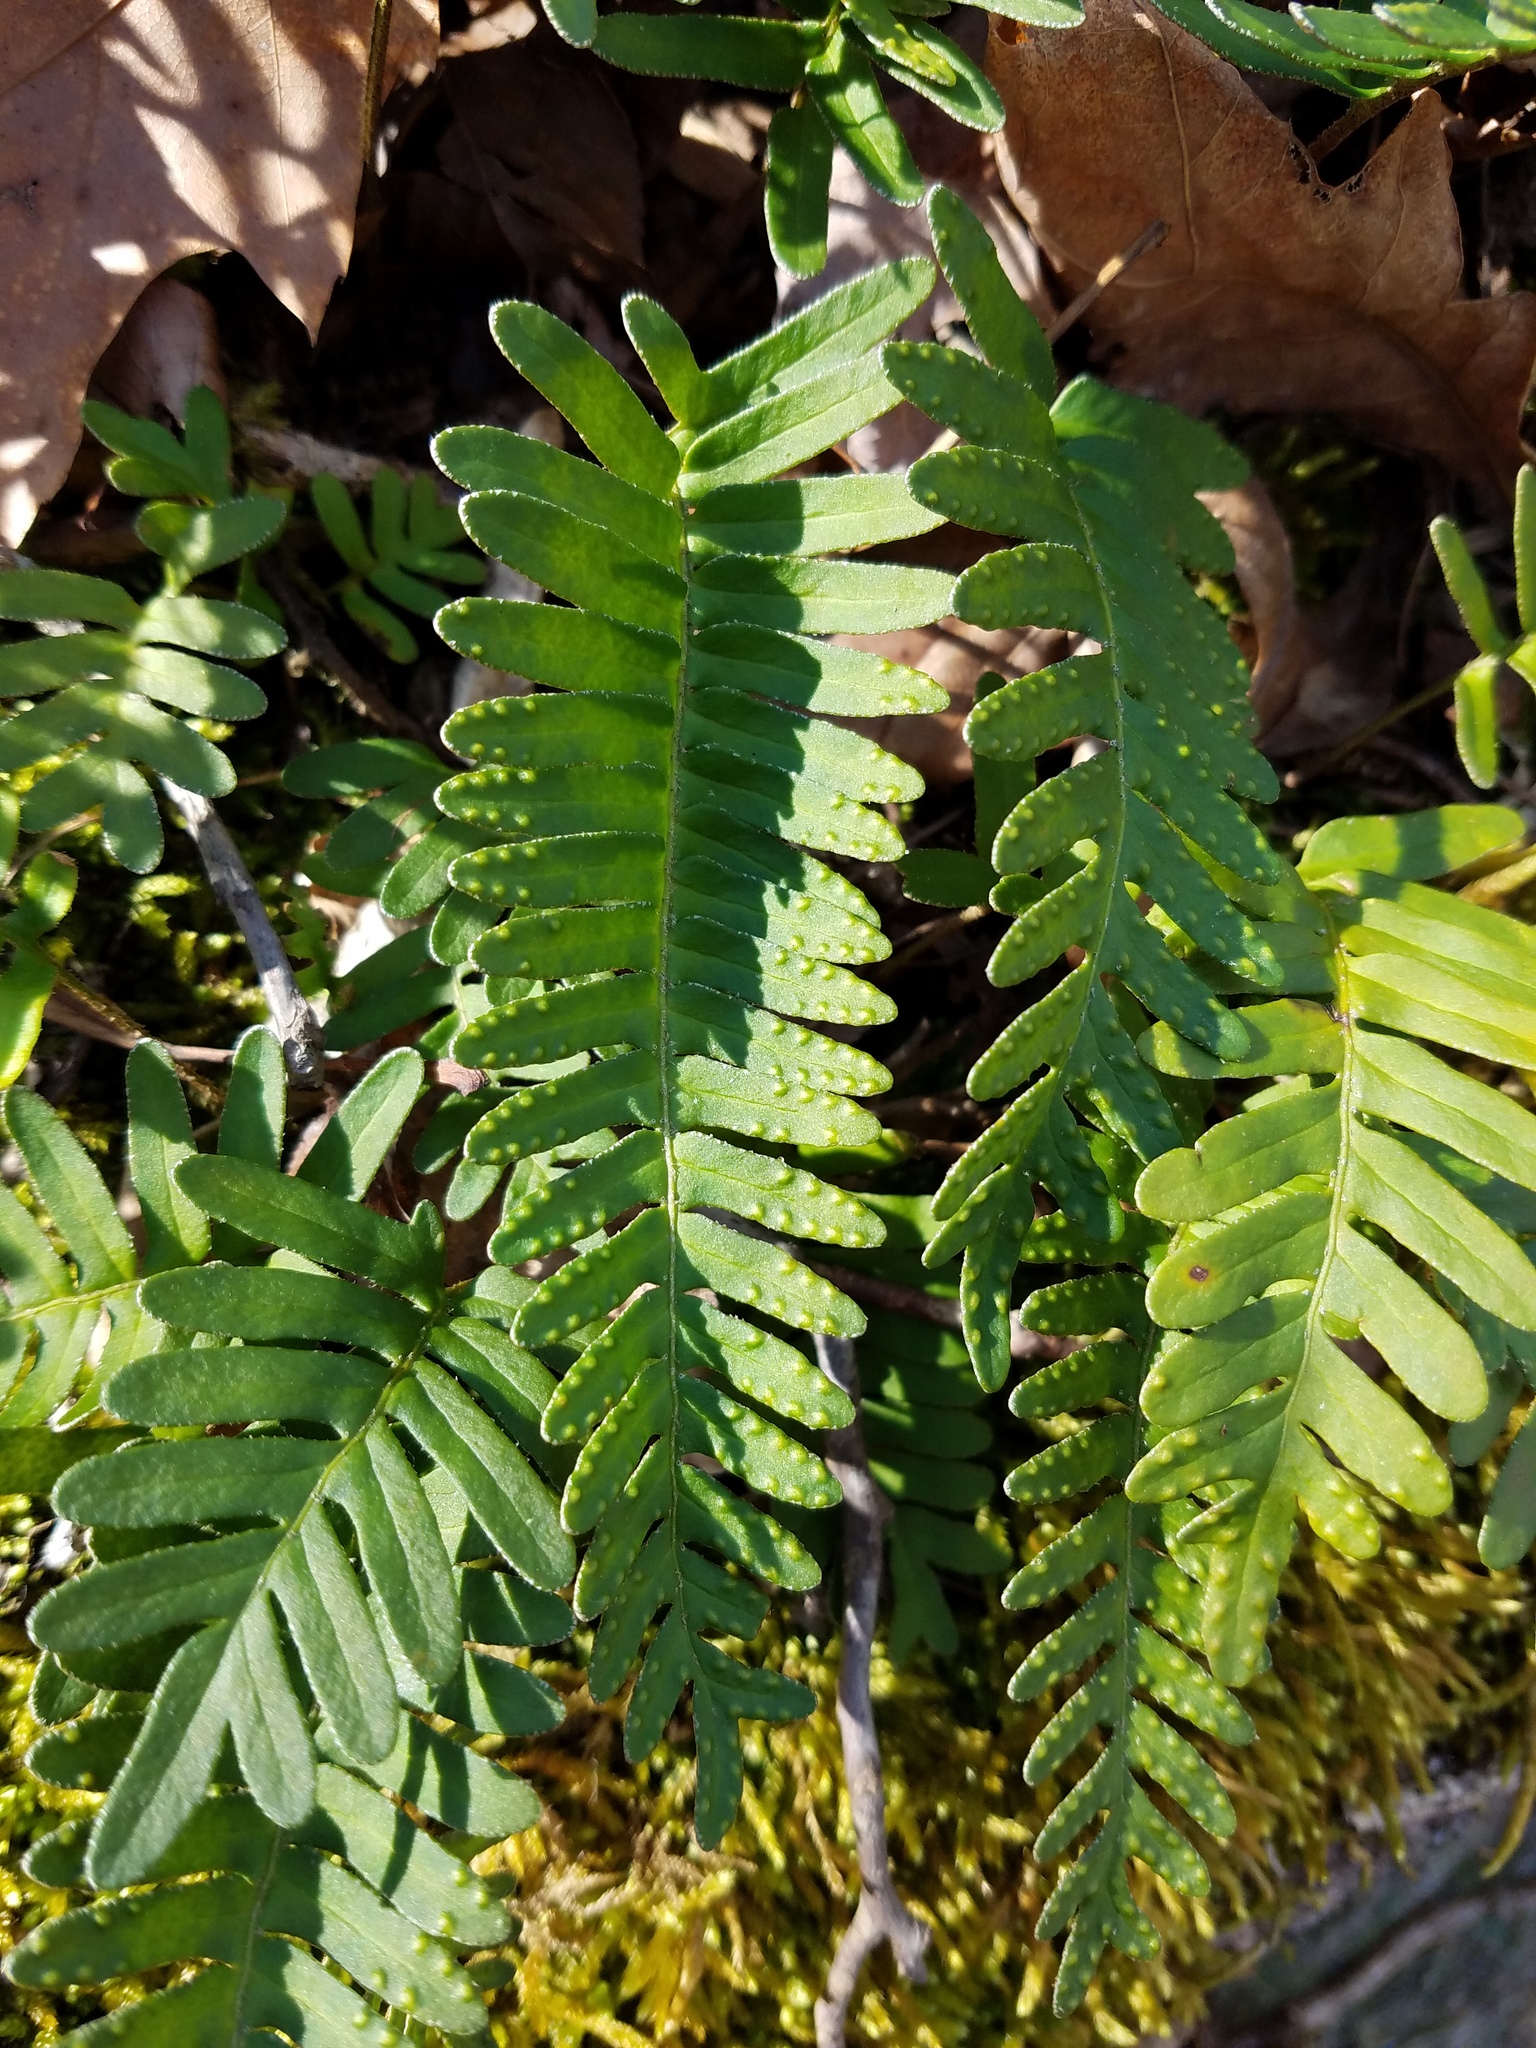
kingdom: Plantae
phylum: Tracheophyta
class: Polypodiopsida
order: Polypodiales
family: Polypodiaceae
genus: Pleopeltis
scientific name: Pleopeltis michauxiana
